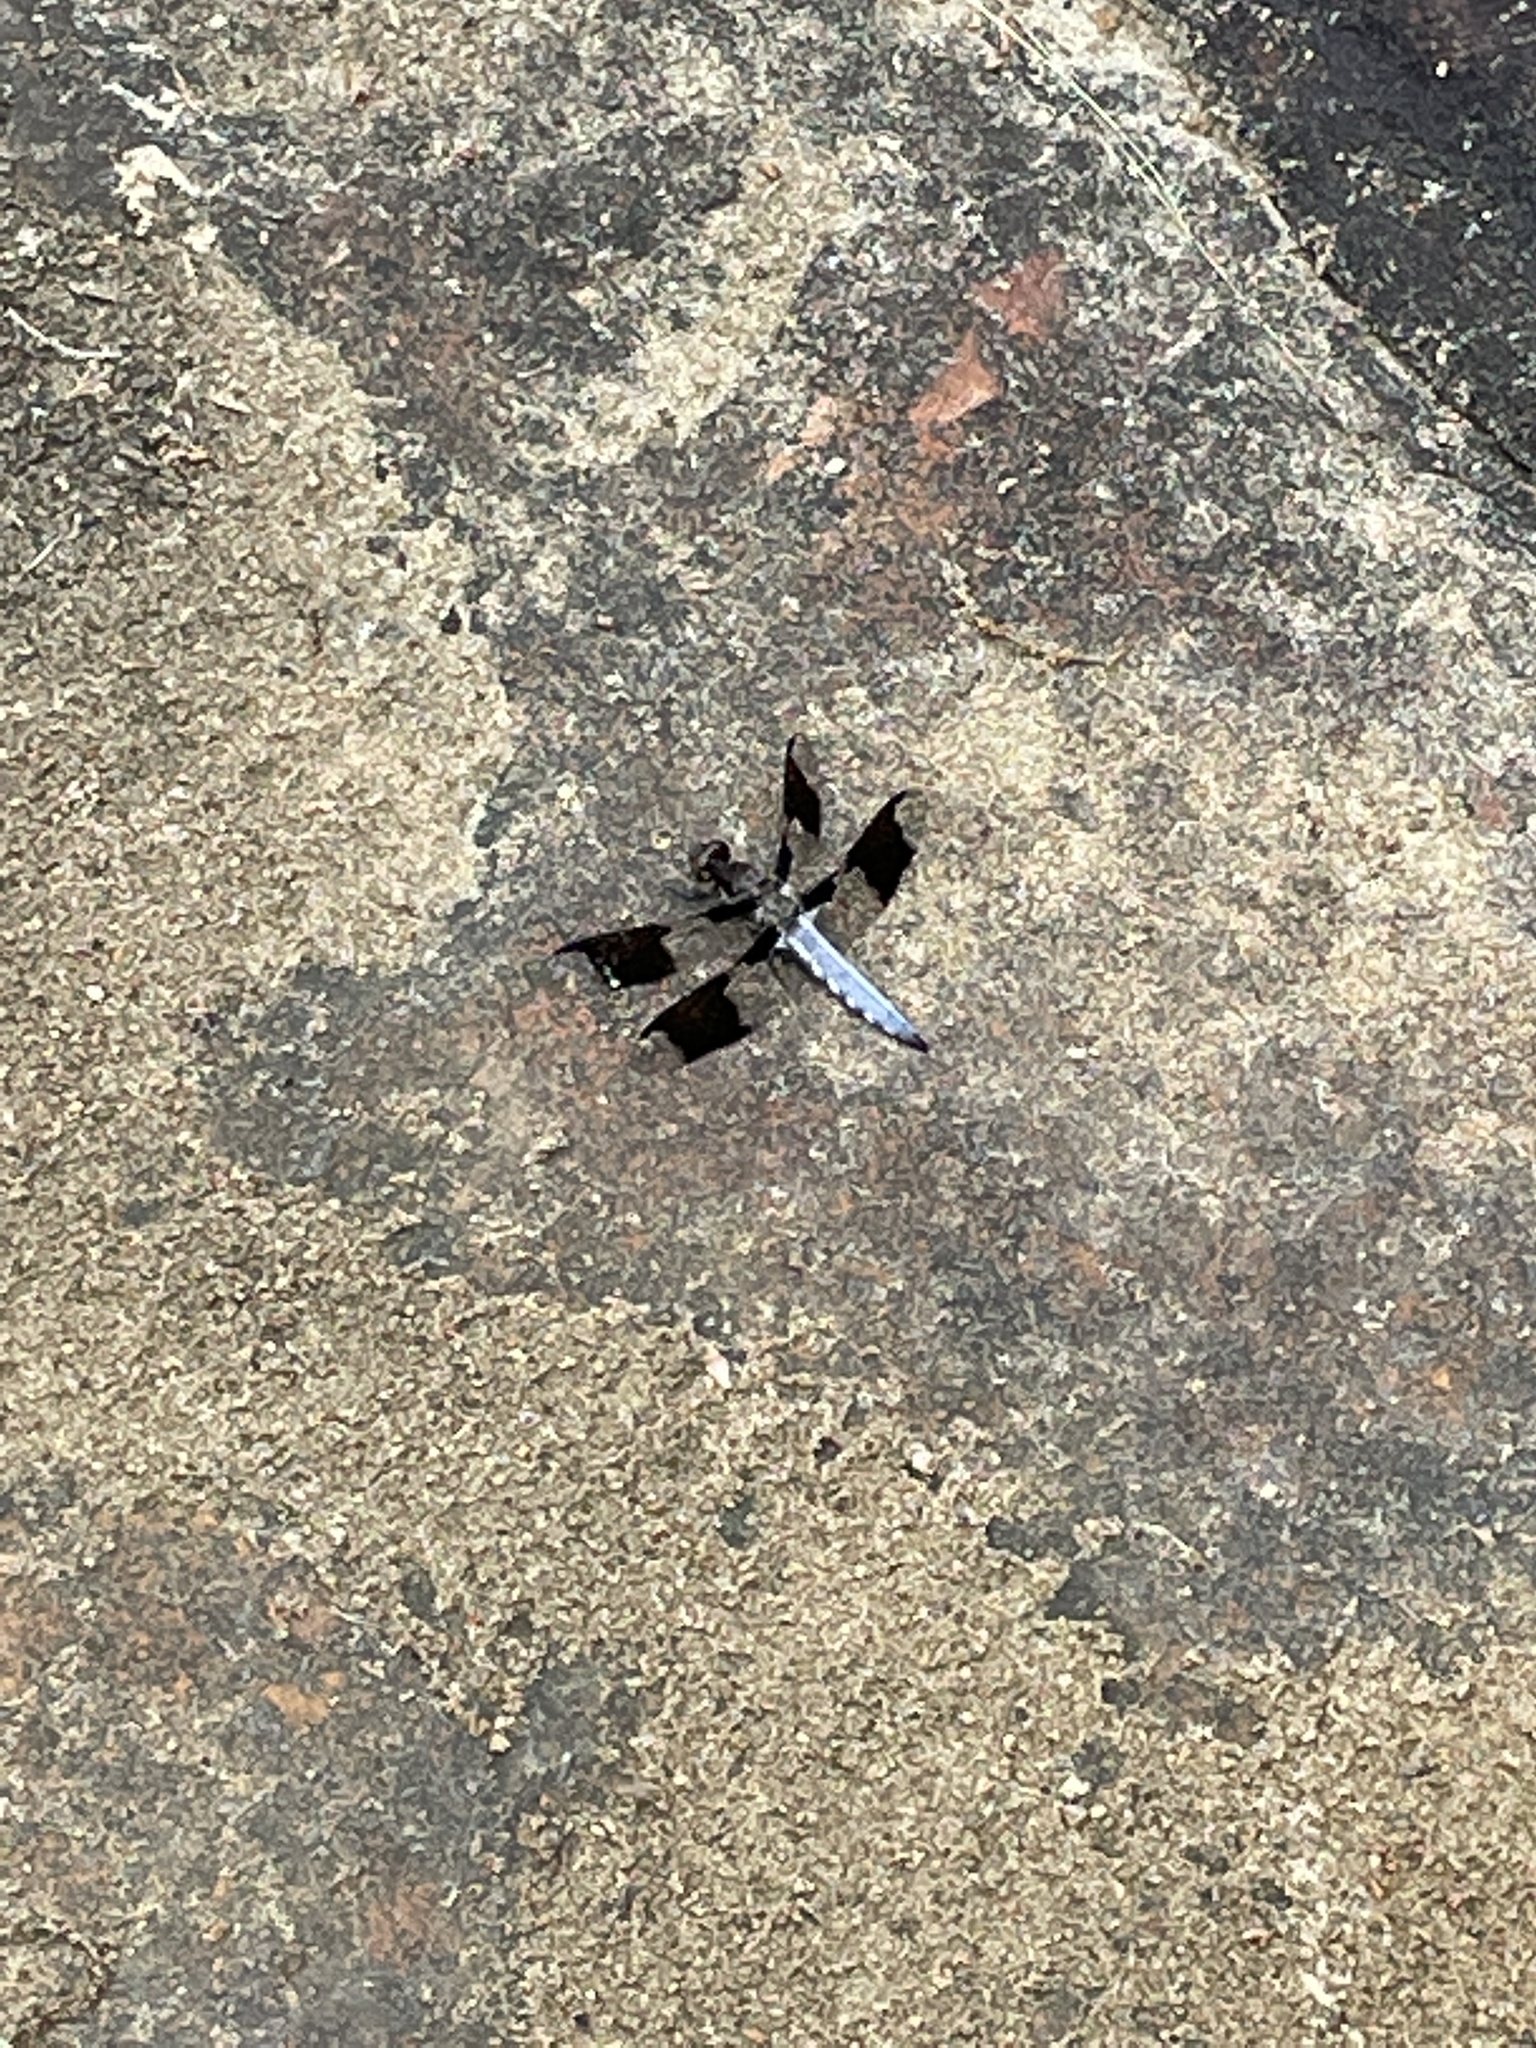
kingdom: Animalia
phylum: Arthropoda
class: Insecta
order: Odonata
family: Libellulidae
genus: Plathemis
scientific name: Plathemis lydia
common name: Common whitetail
